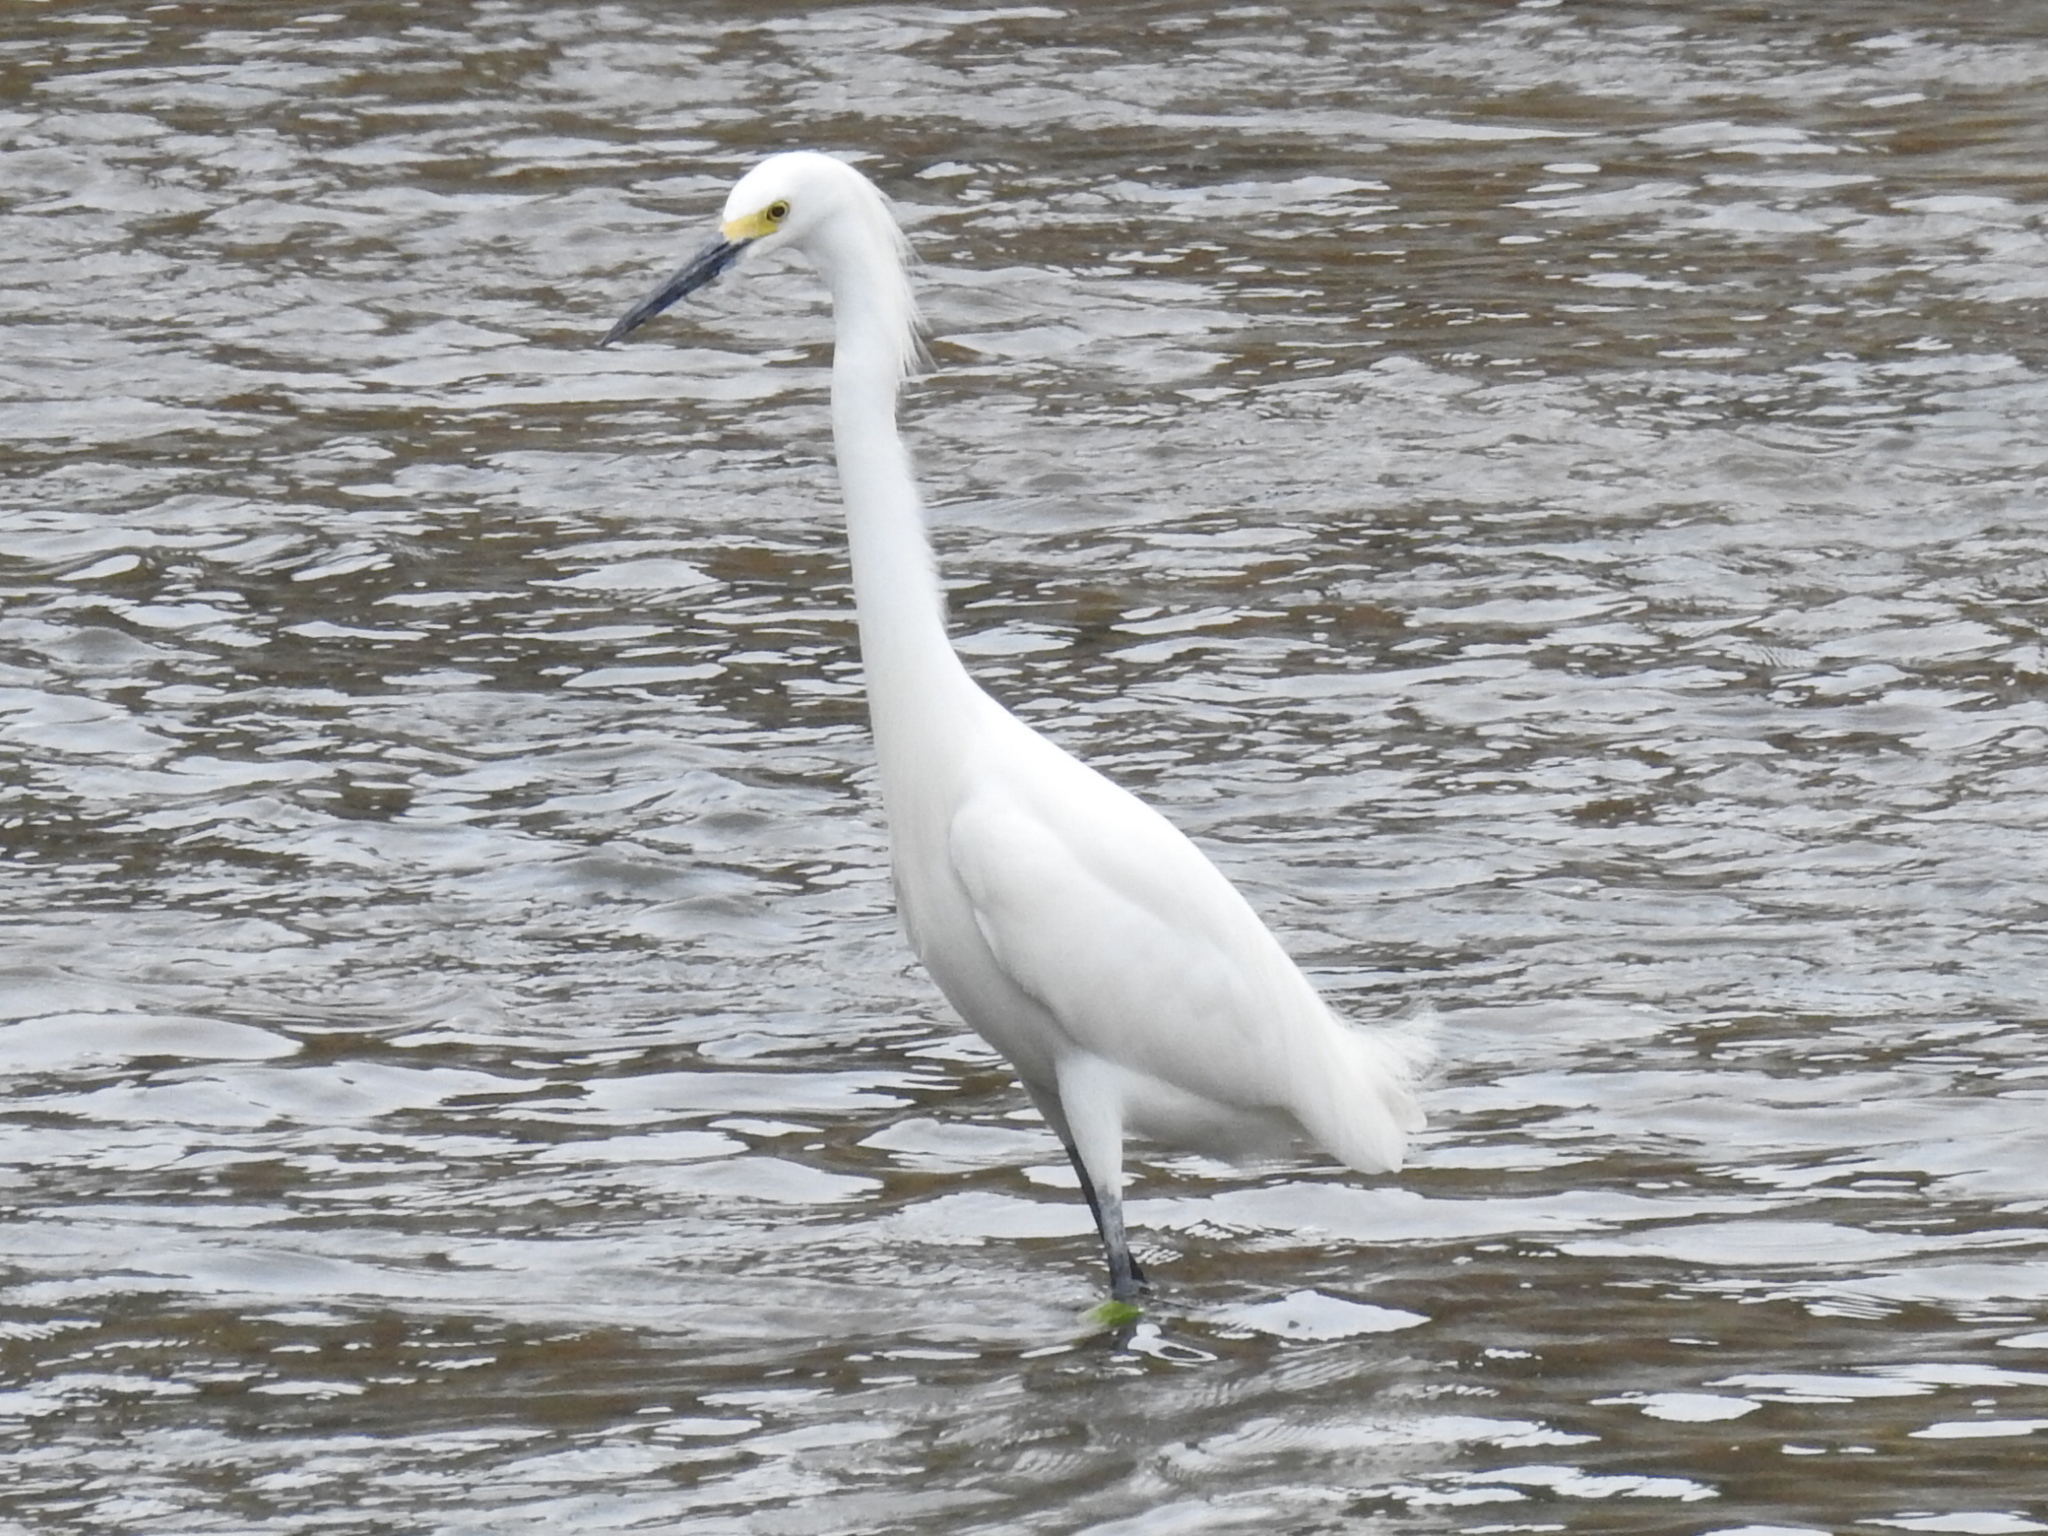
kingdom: Animalia
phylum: Chordata
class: Aves
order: Pelecaniformes
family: Ardeidae
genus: Egretta
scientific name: Egretta thula
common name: Snowy egret
